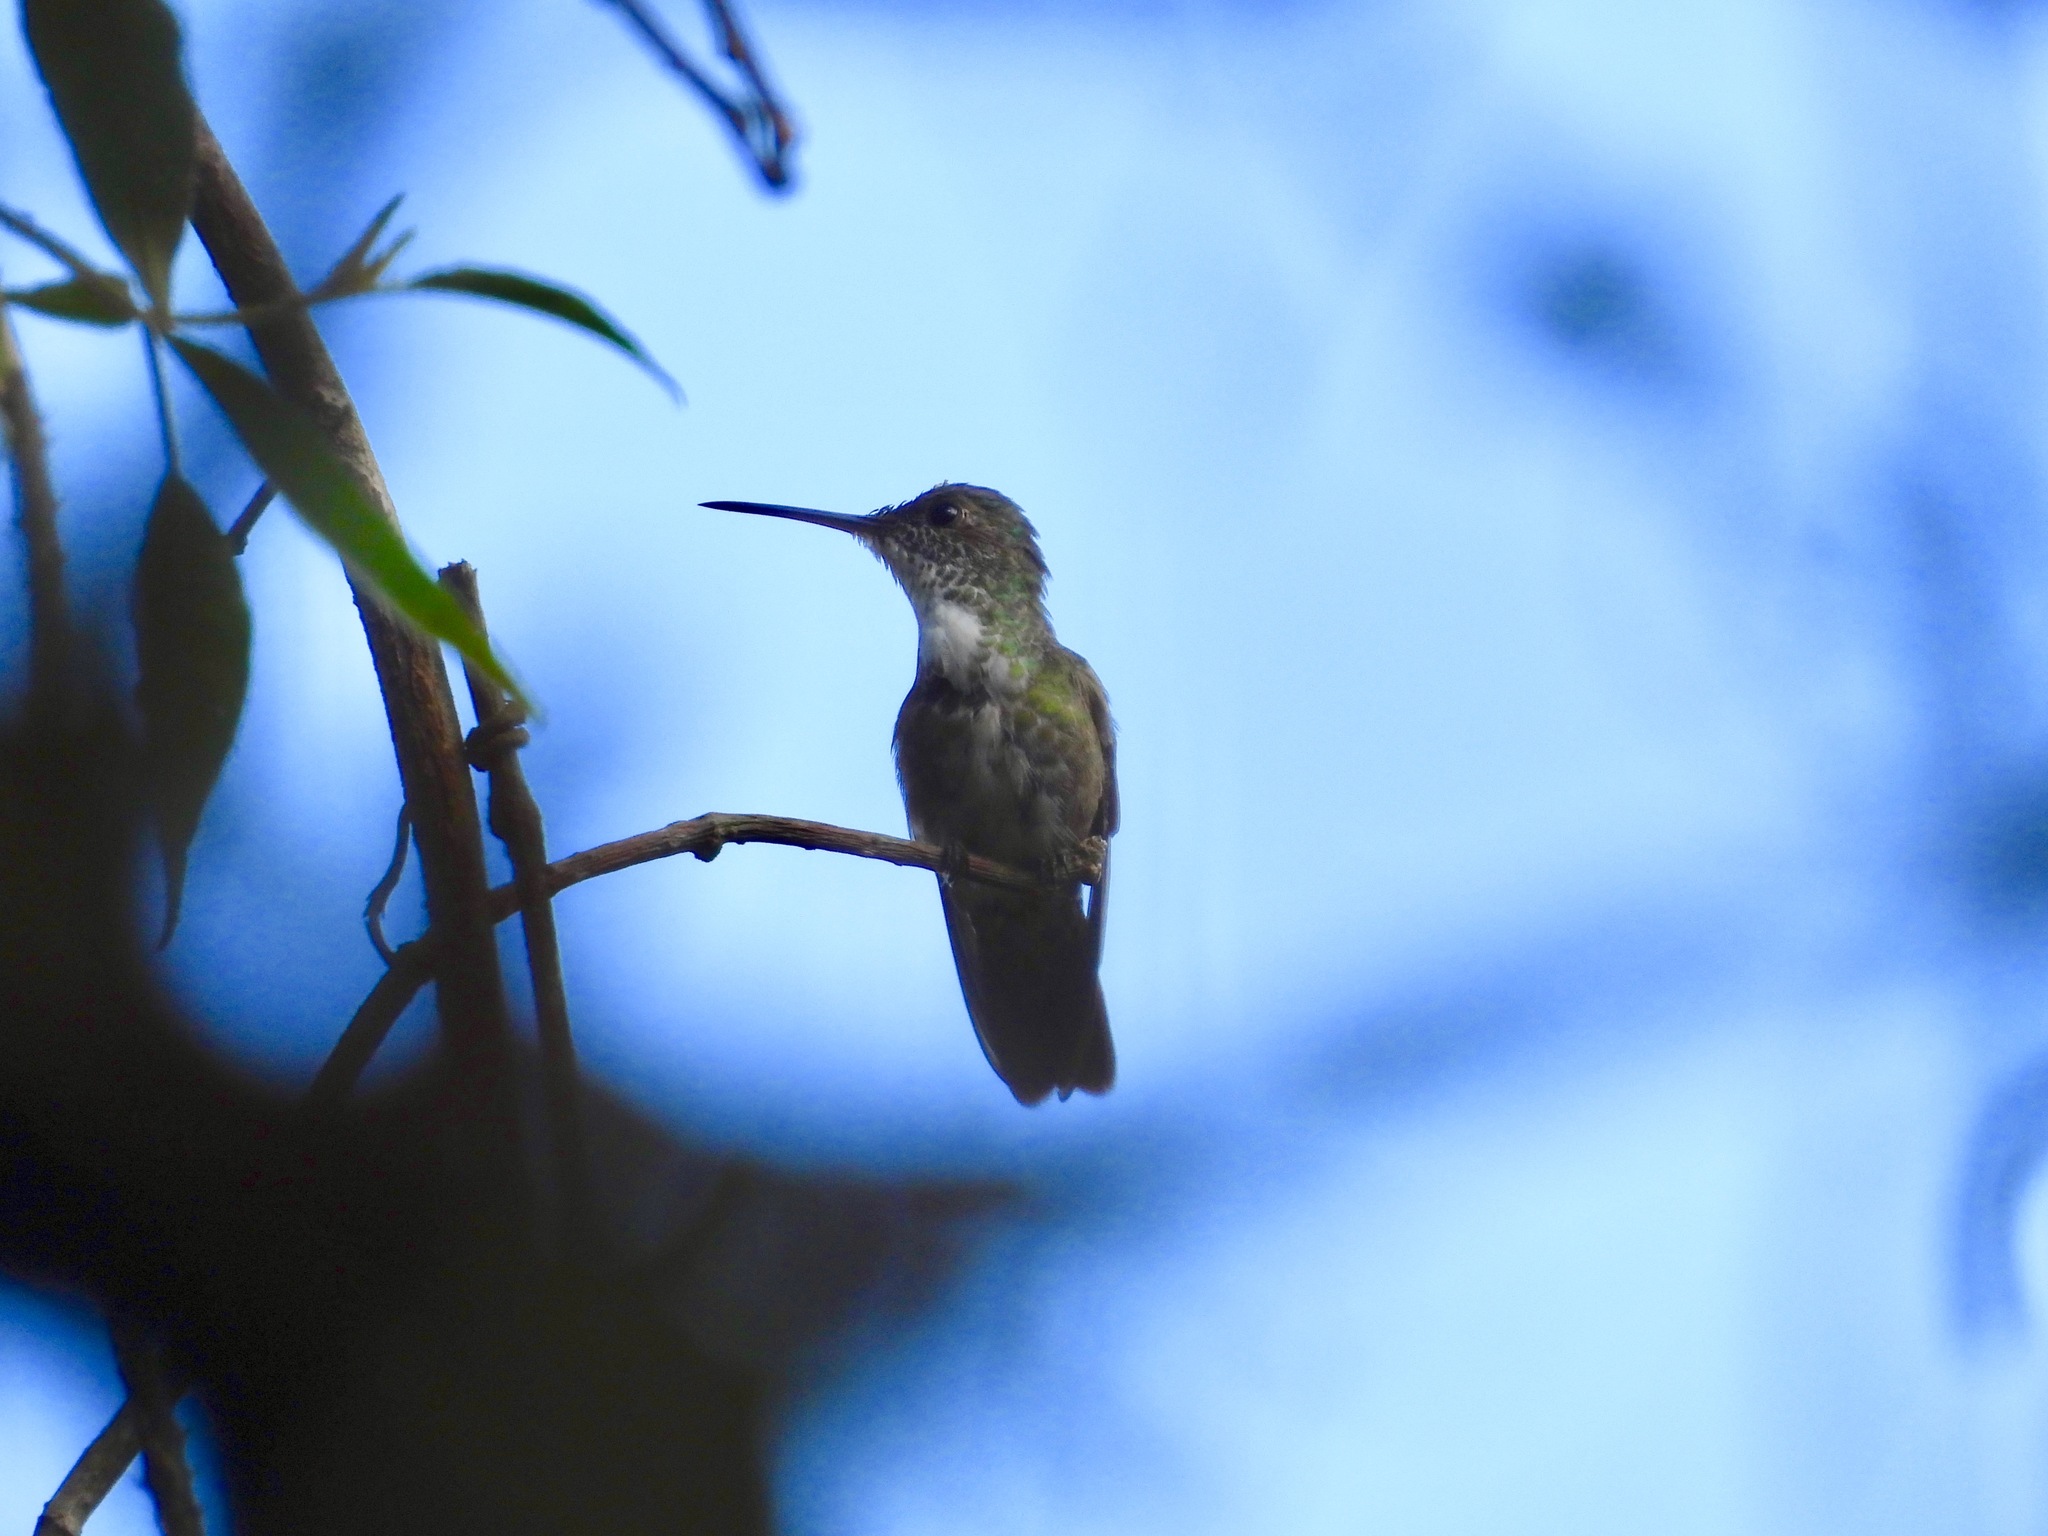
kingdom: Animalia
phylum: Chordata
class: Aves
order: Apodiformes
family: Trochilidae
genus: Saucerottia
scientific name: Saucerottia cyanocephala
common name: Azure-crowned hummingbird
